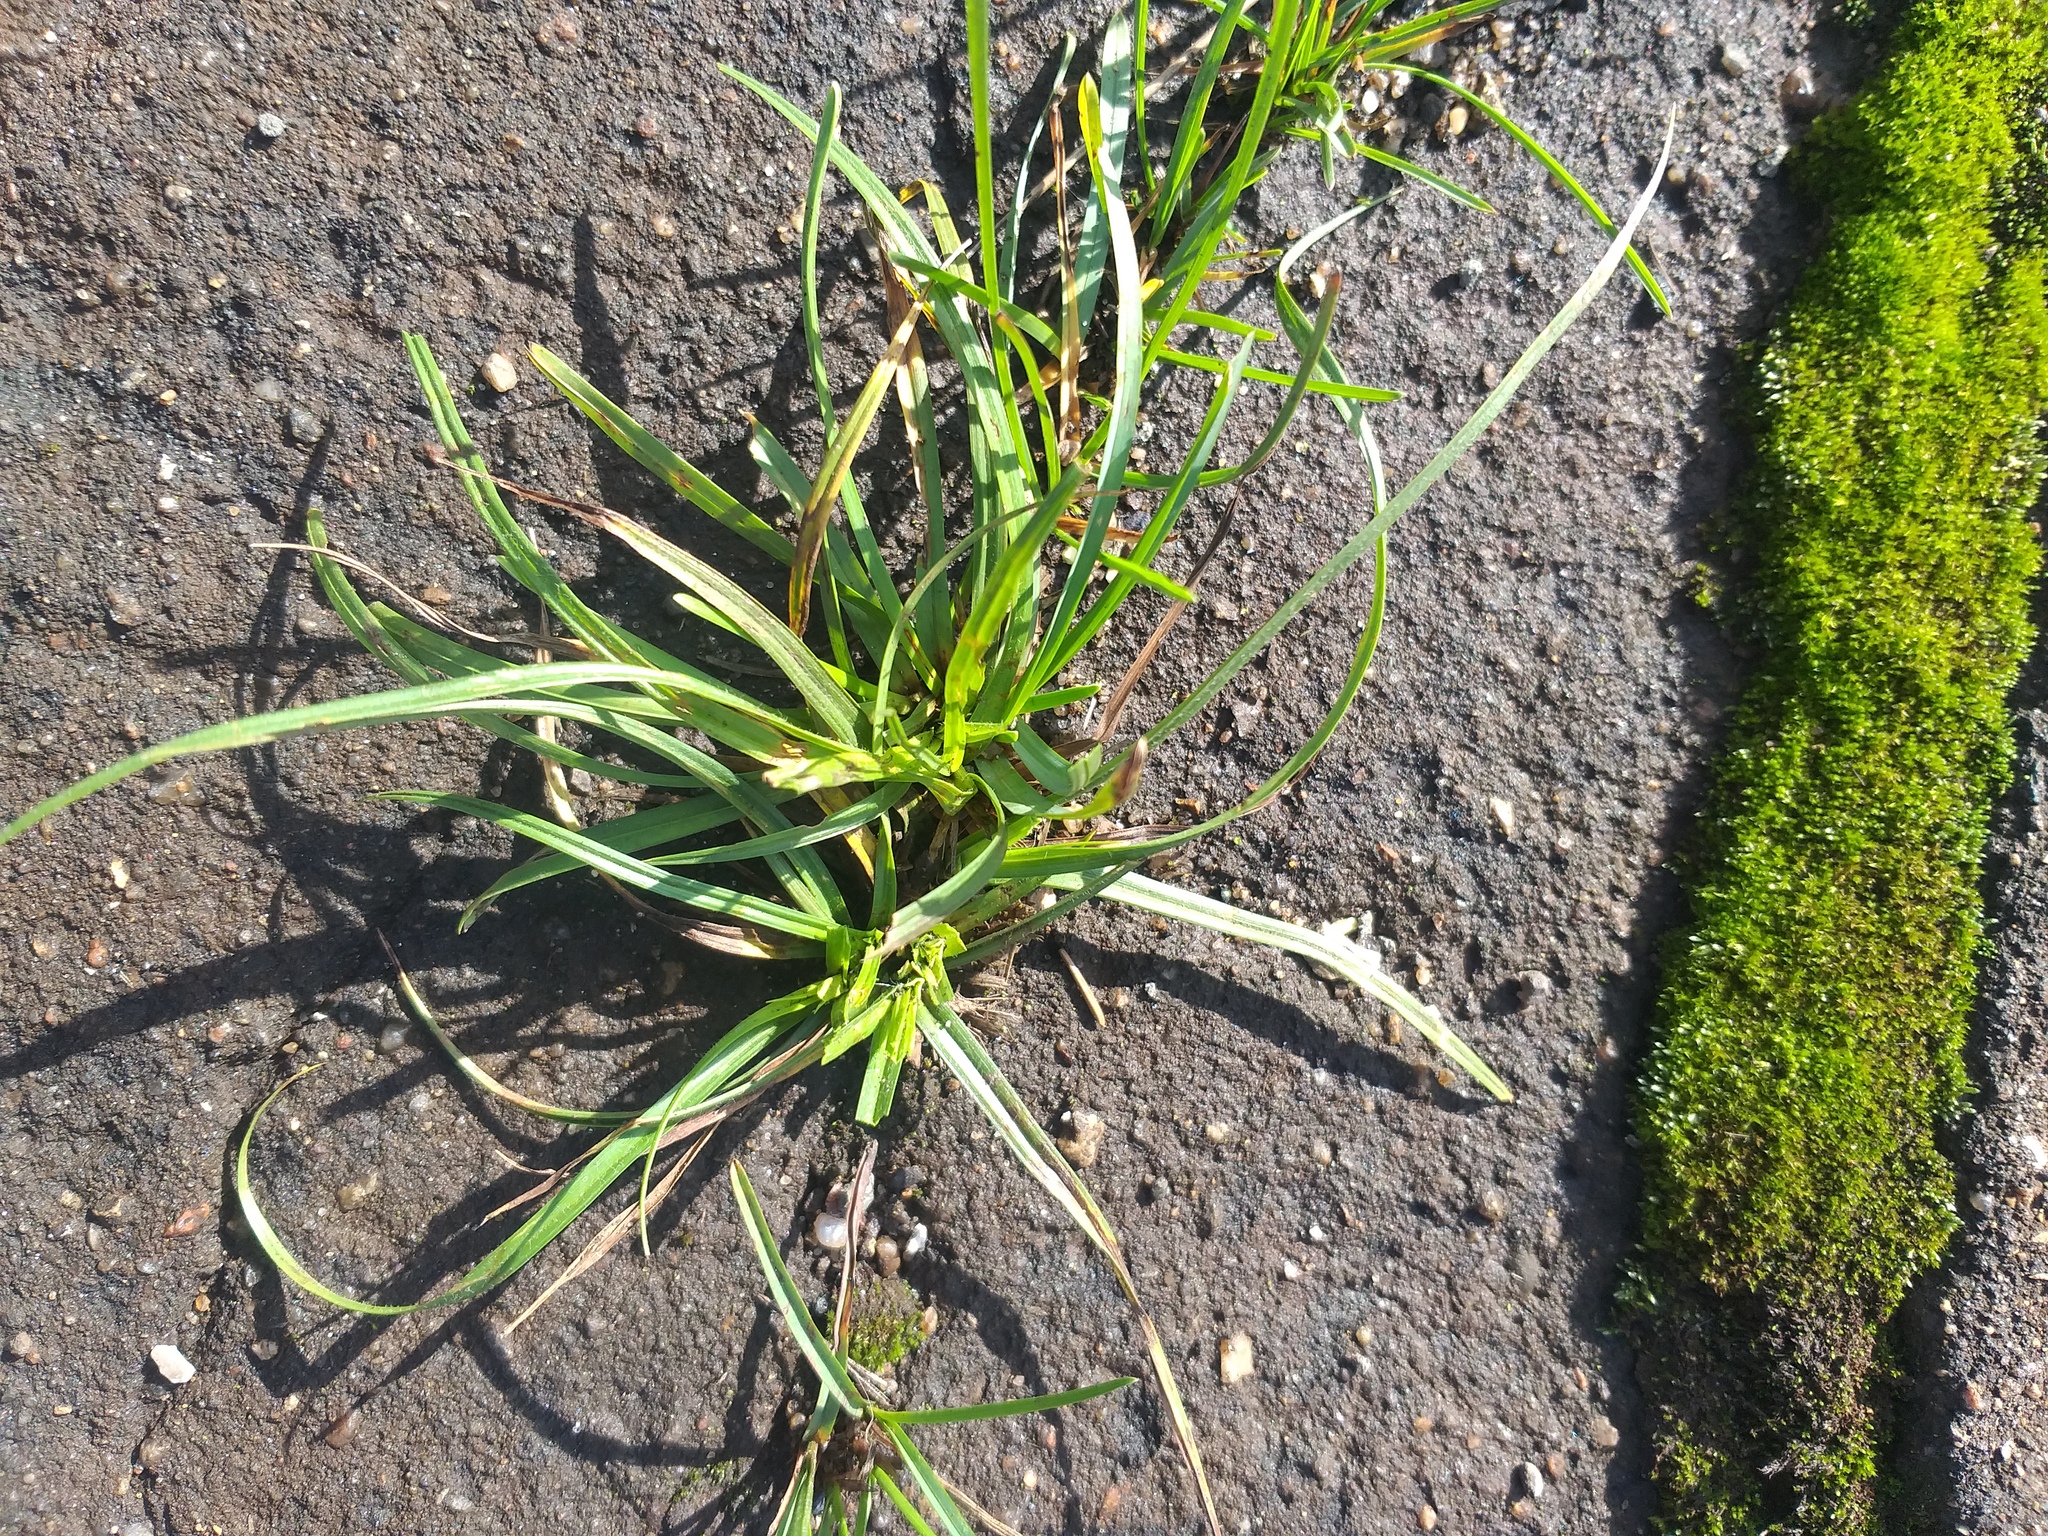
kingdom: Plantae
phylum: Tracheophyta
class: Liliopsida
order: Poales
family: Cyperaceae
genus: Carex
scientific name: Carex hirta
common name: Hairy sedge
